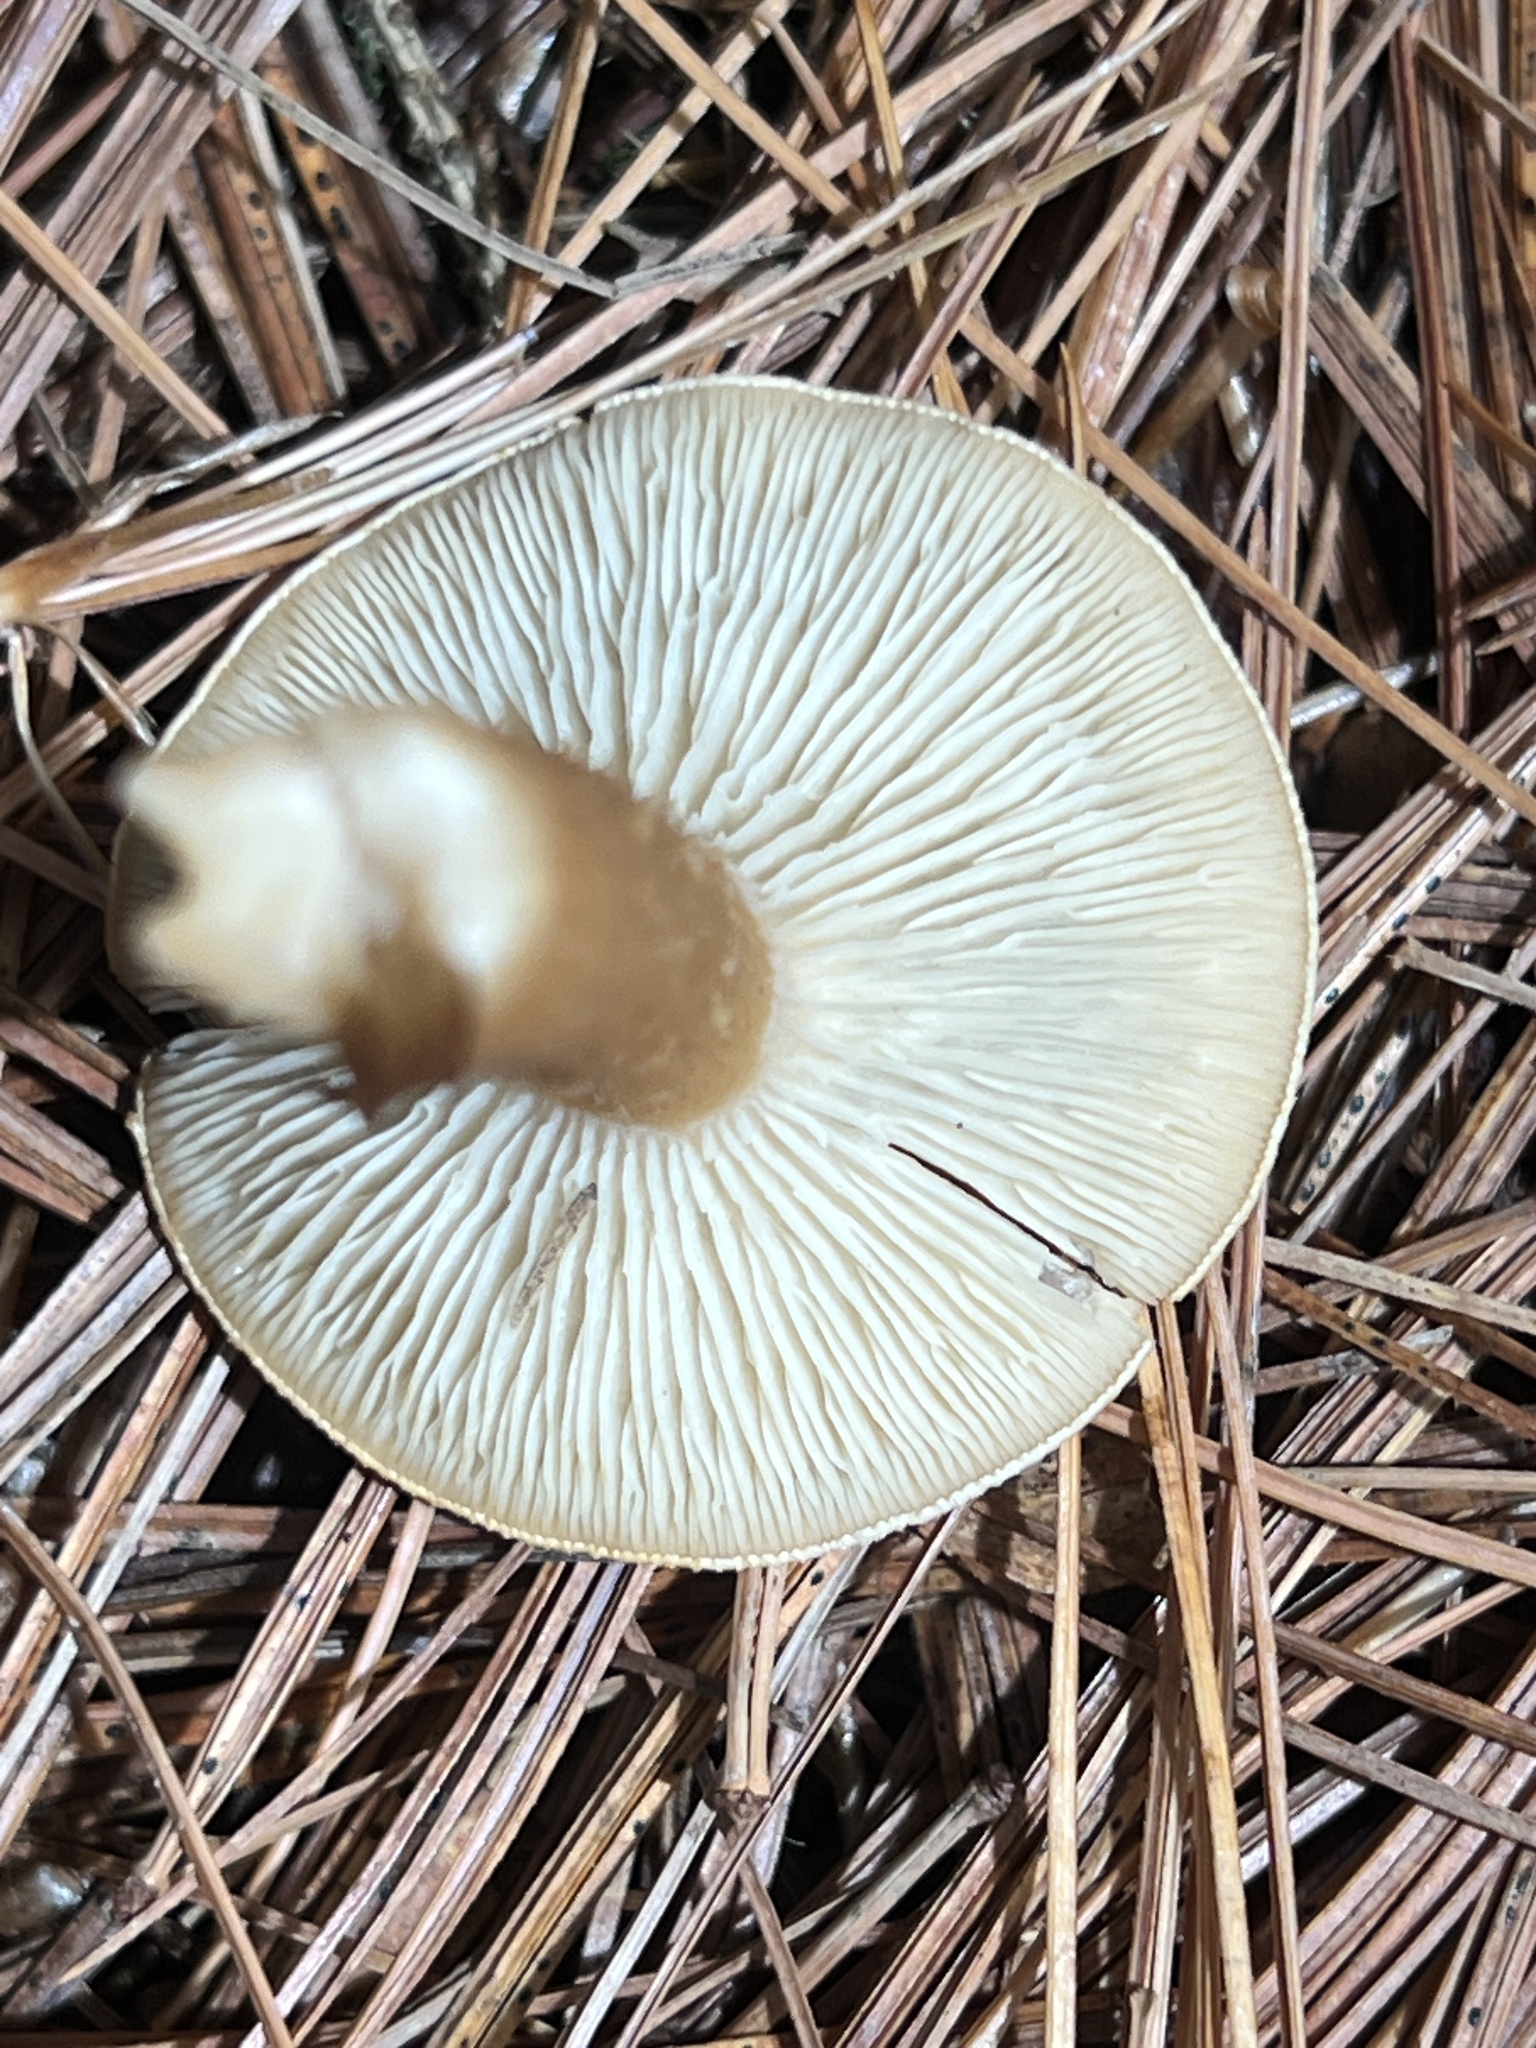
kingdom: Fungi
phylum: Basidiomycota
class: Agaricomycetes
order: Agaricales
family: Tricholomataceae
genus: Infundibulicybe
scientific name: Infundibulicybe gibba
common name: Common funnel
